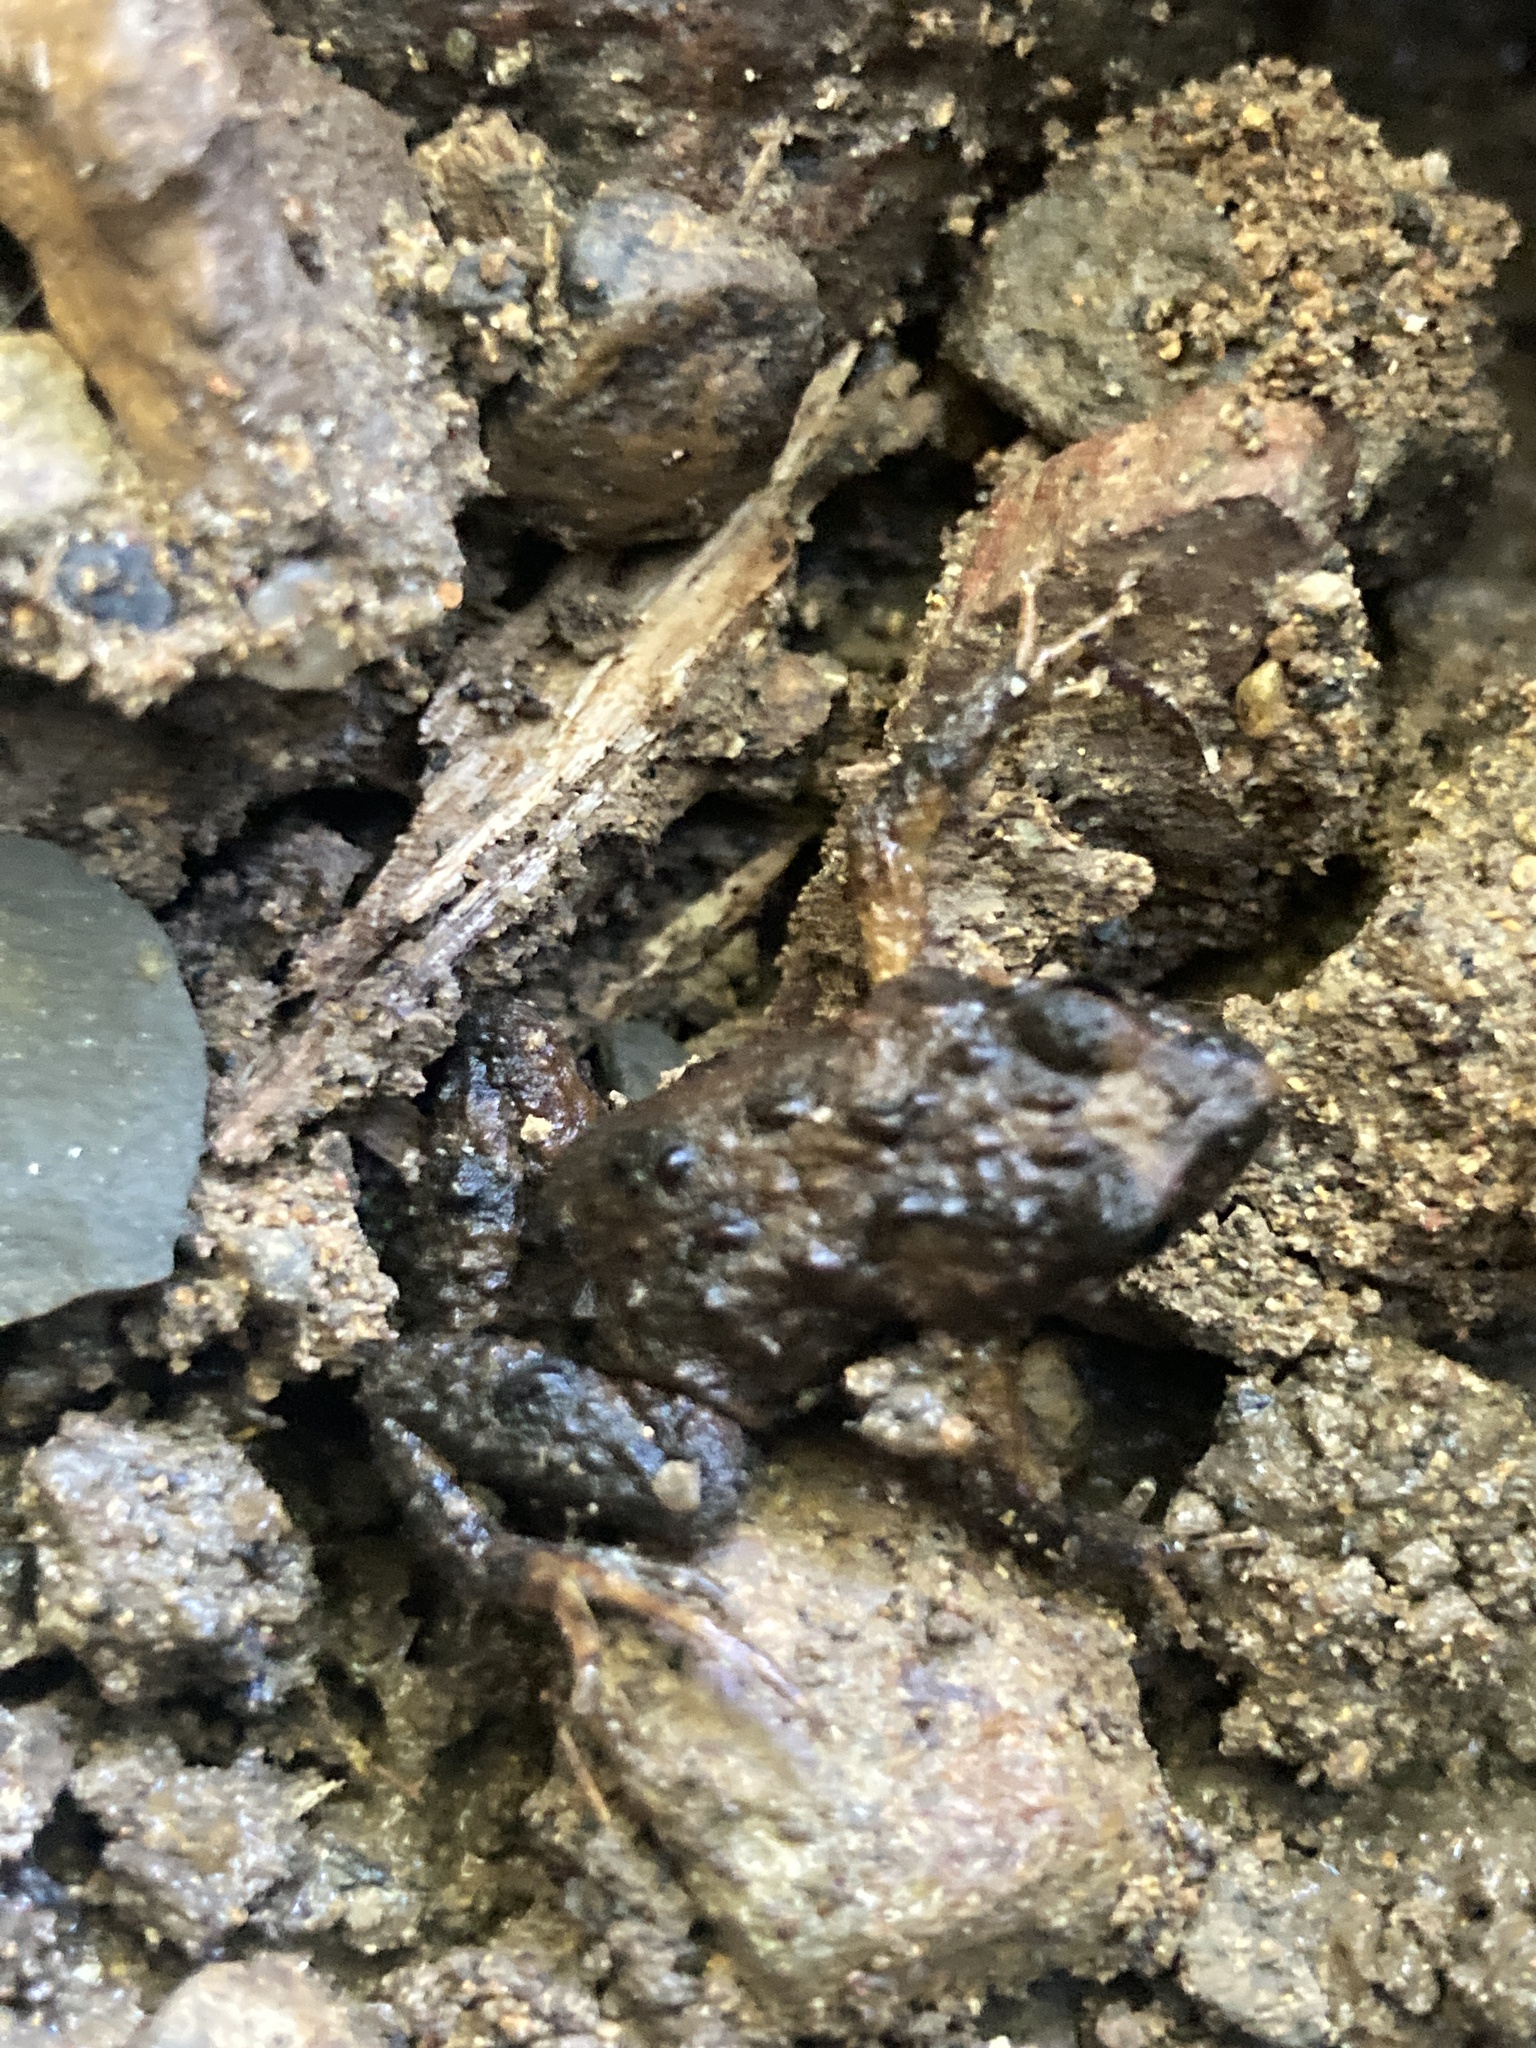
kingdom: Animalia
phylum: Chordata
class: Amphibia
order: Anura
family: Myobatrachidae
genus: Crinia
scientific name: Crinia signifera
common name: Brown froglet
